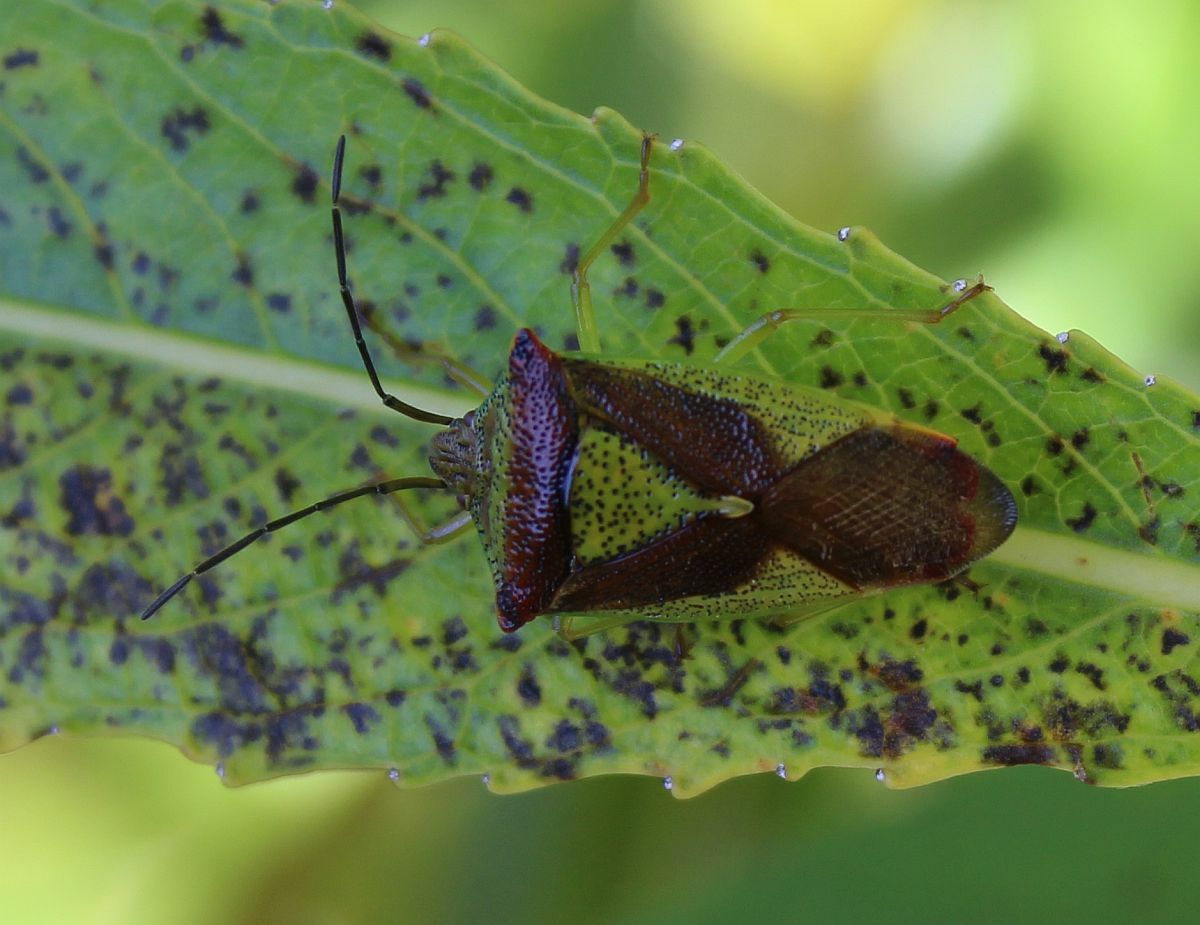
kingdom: Animalia
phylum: Arthropoda
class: Insecta
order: Hemiptera
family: Acanthosomatidae
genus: Acanthosoma
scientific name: Acanthosoma haemorrhoidale
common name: Hawthorn shieldbug
